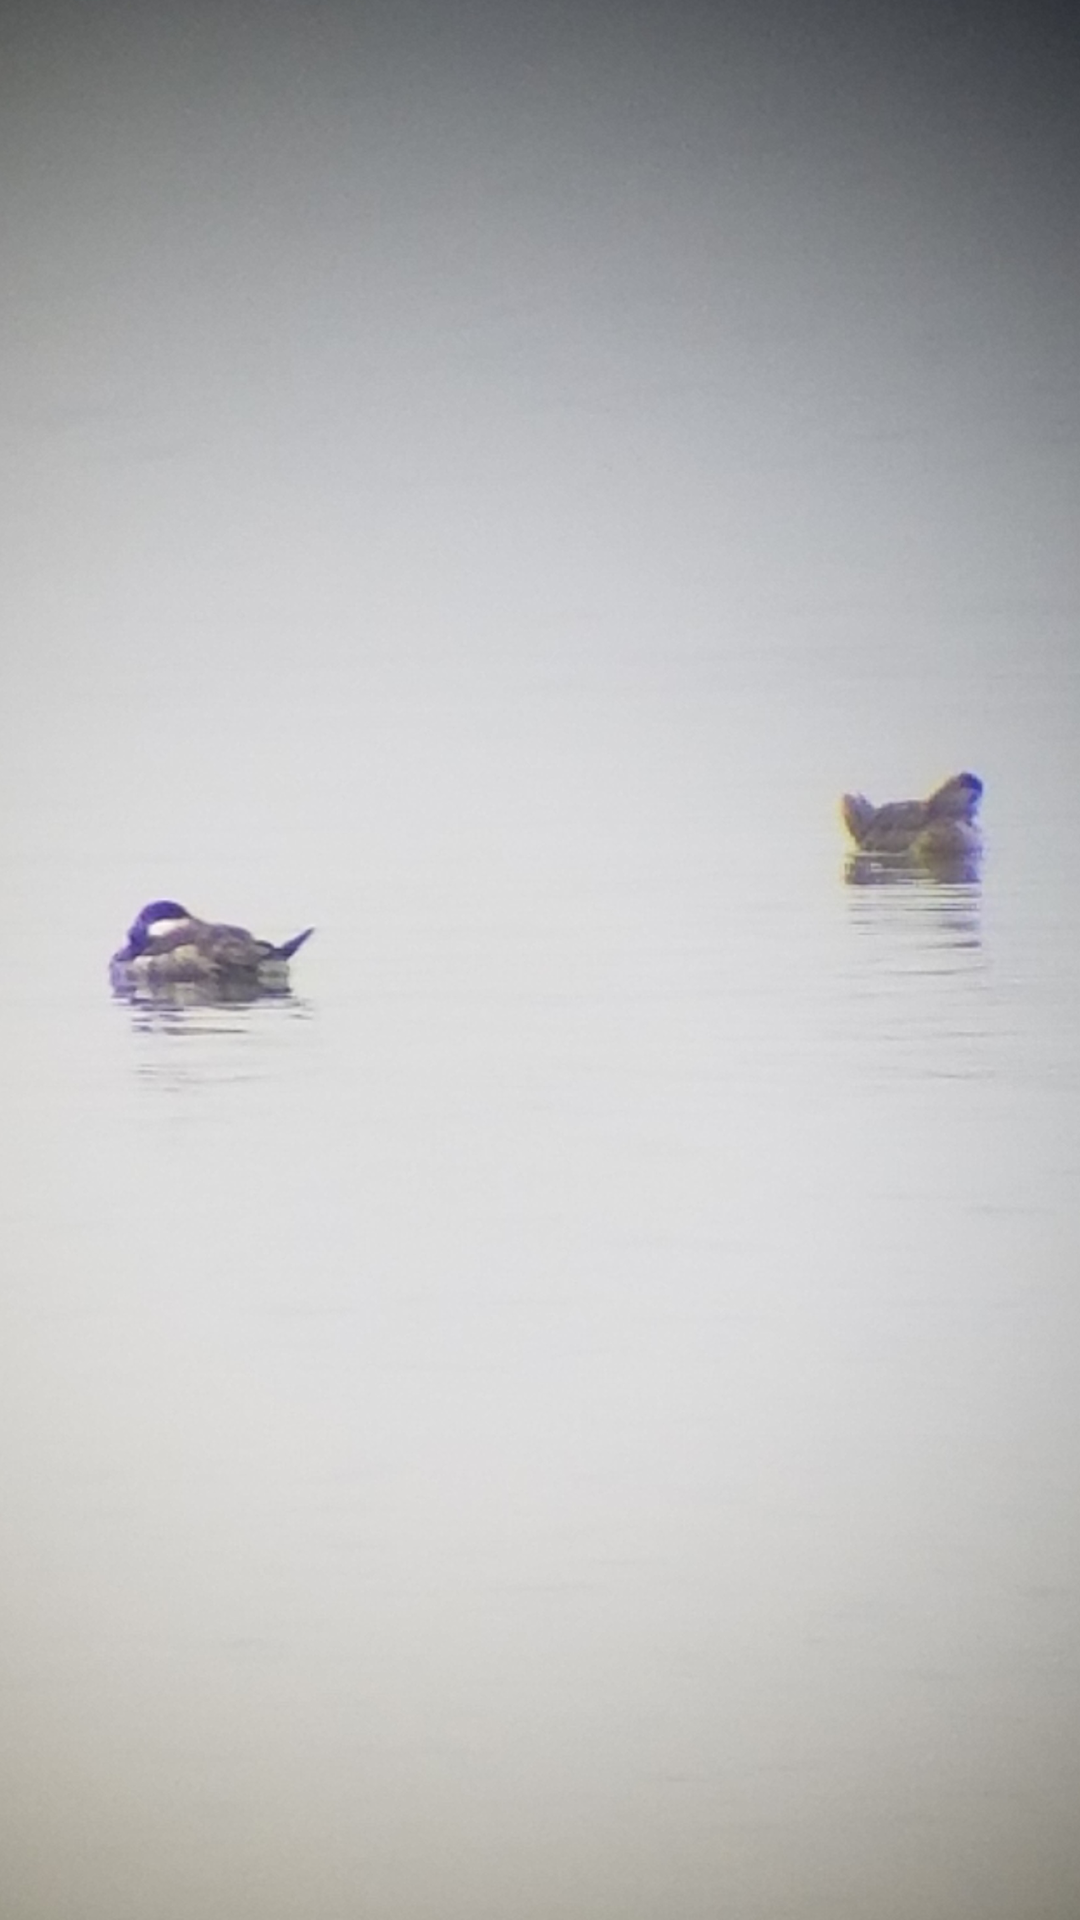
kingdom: Animalia
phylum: Chordata
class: Aves
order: Anseriformes
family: Anatidae
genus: Oxyura
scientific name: Oxyura jamaicensis
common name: Ruddy duck
